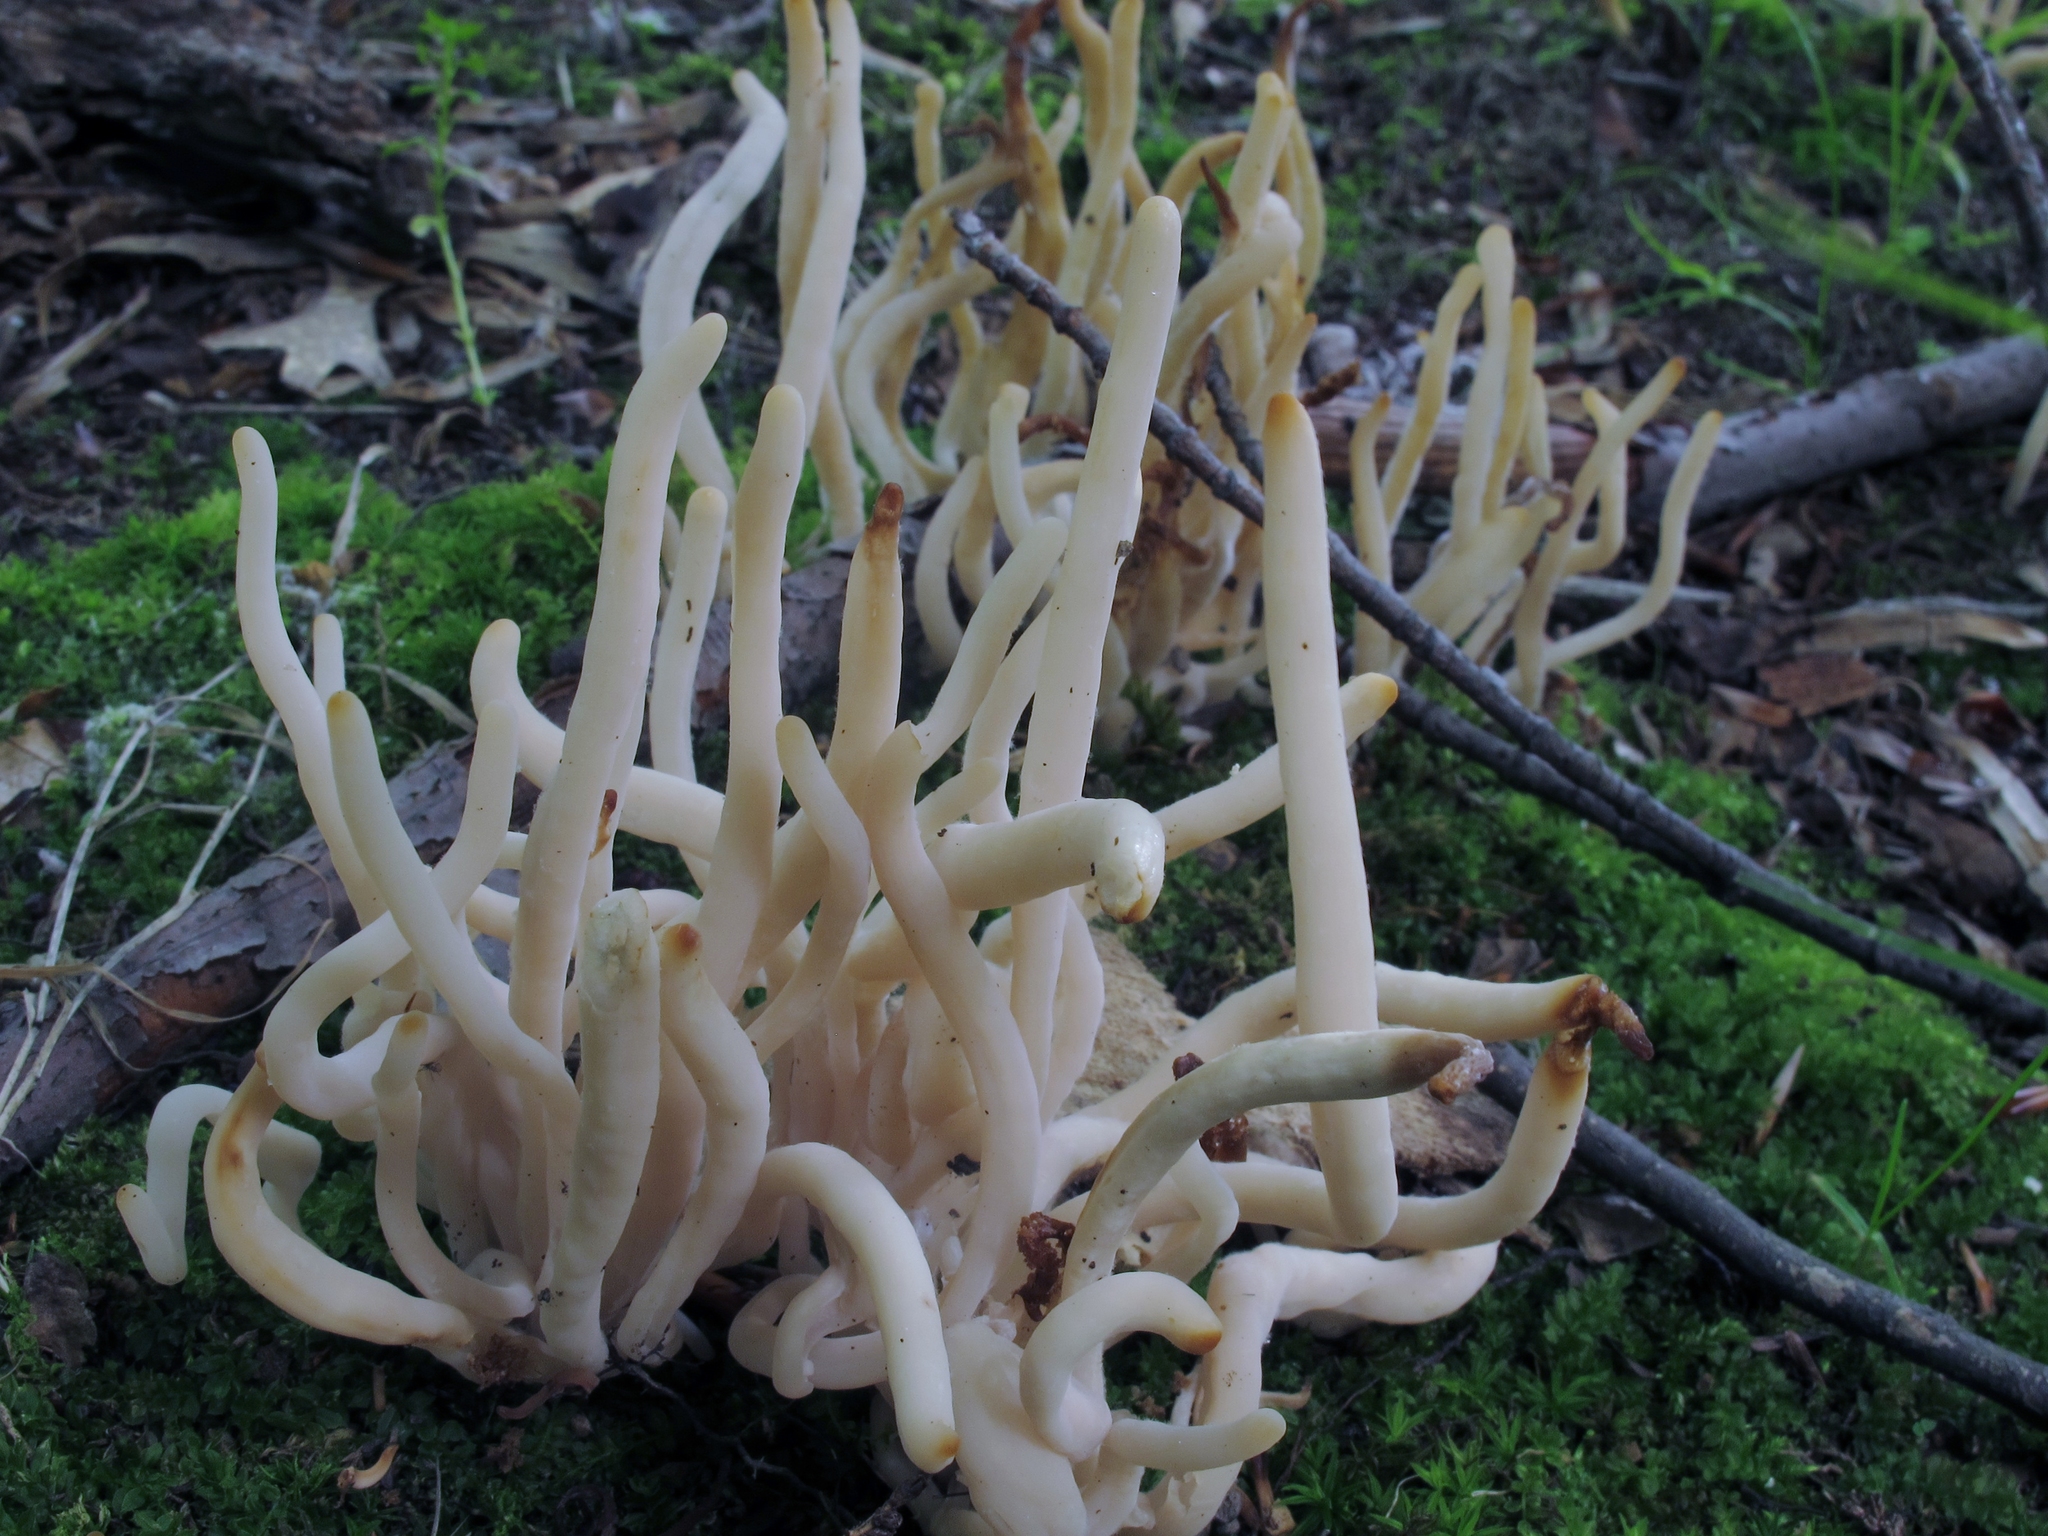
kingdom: Fungi
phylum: Basidiomycota
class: Agaricomycetes
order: Agaricales
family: Clavariaceae
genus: Clavaria
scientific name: Clavaria rubicundula
